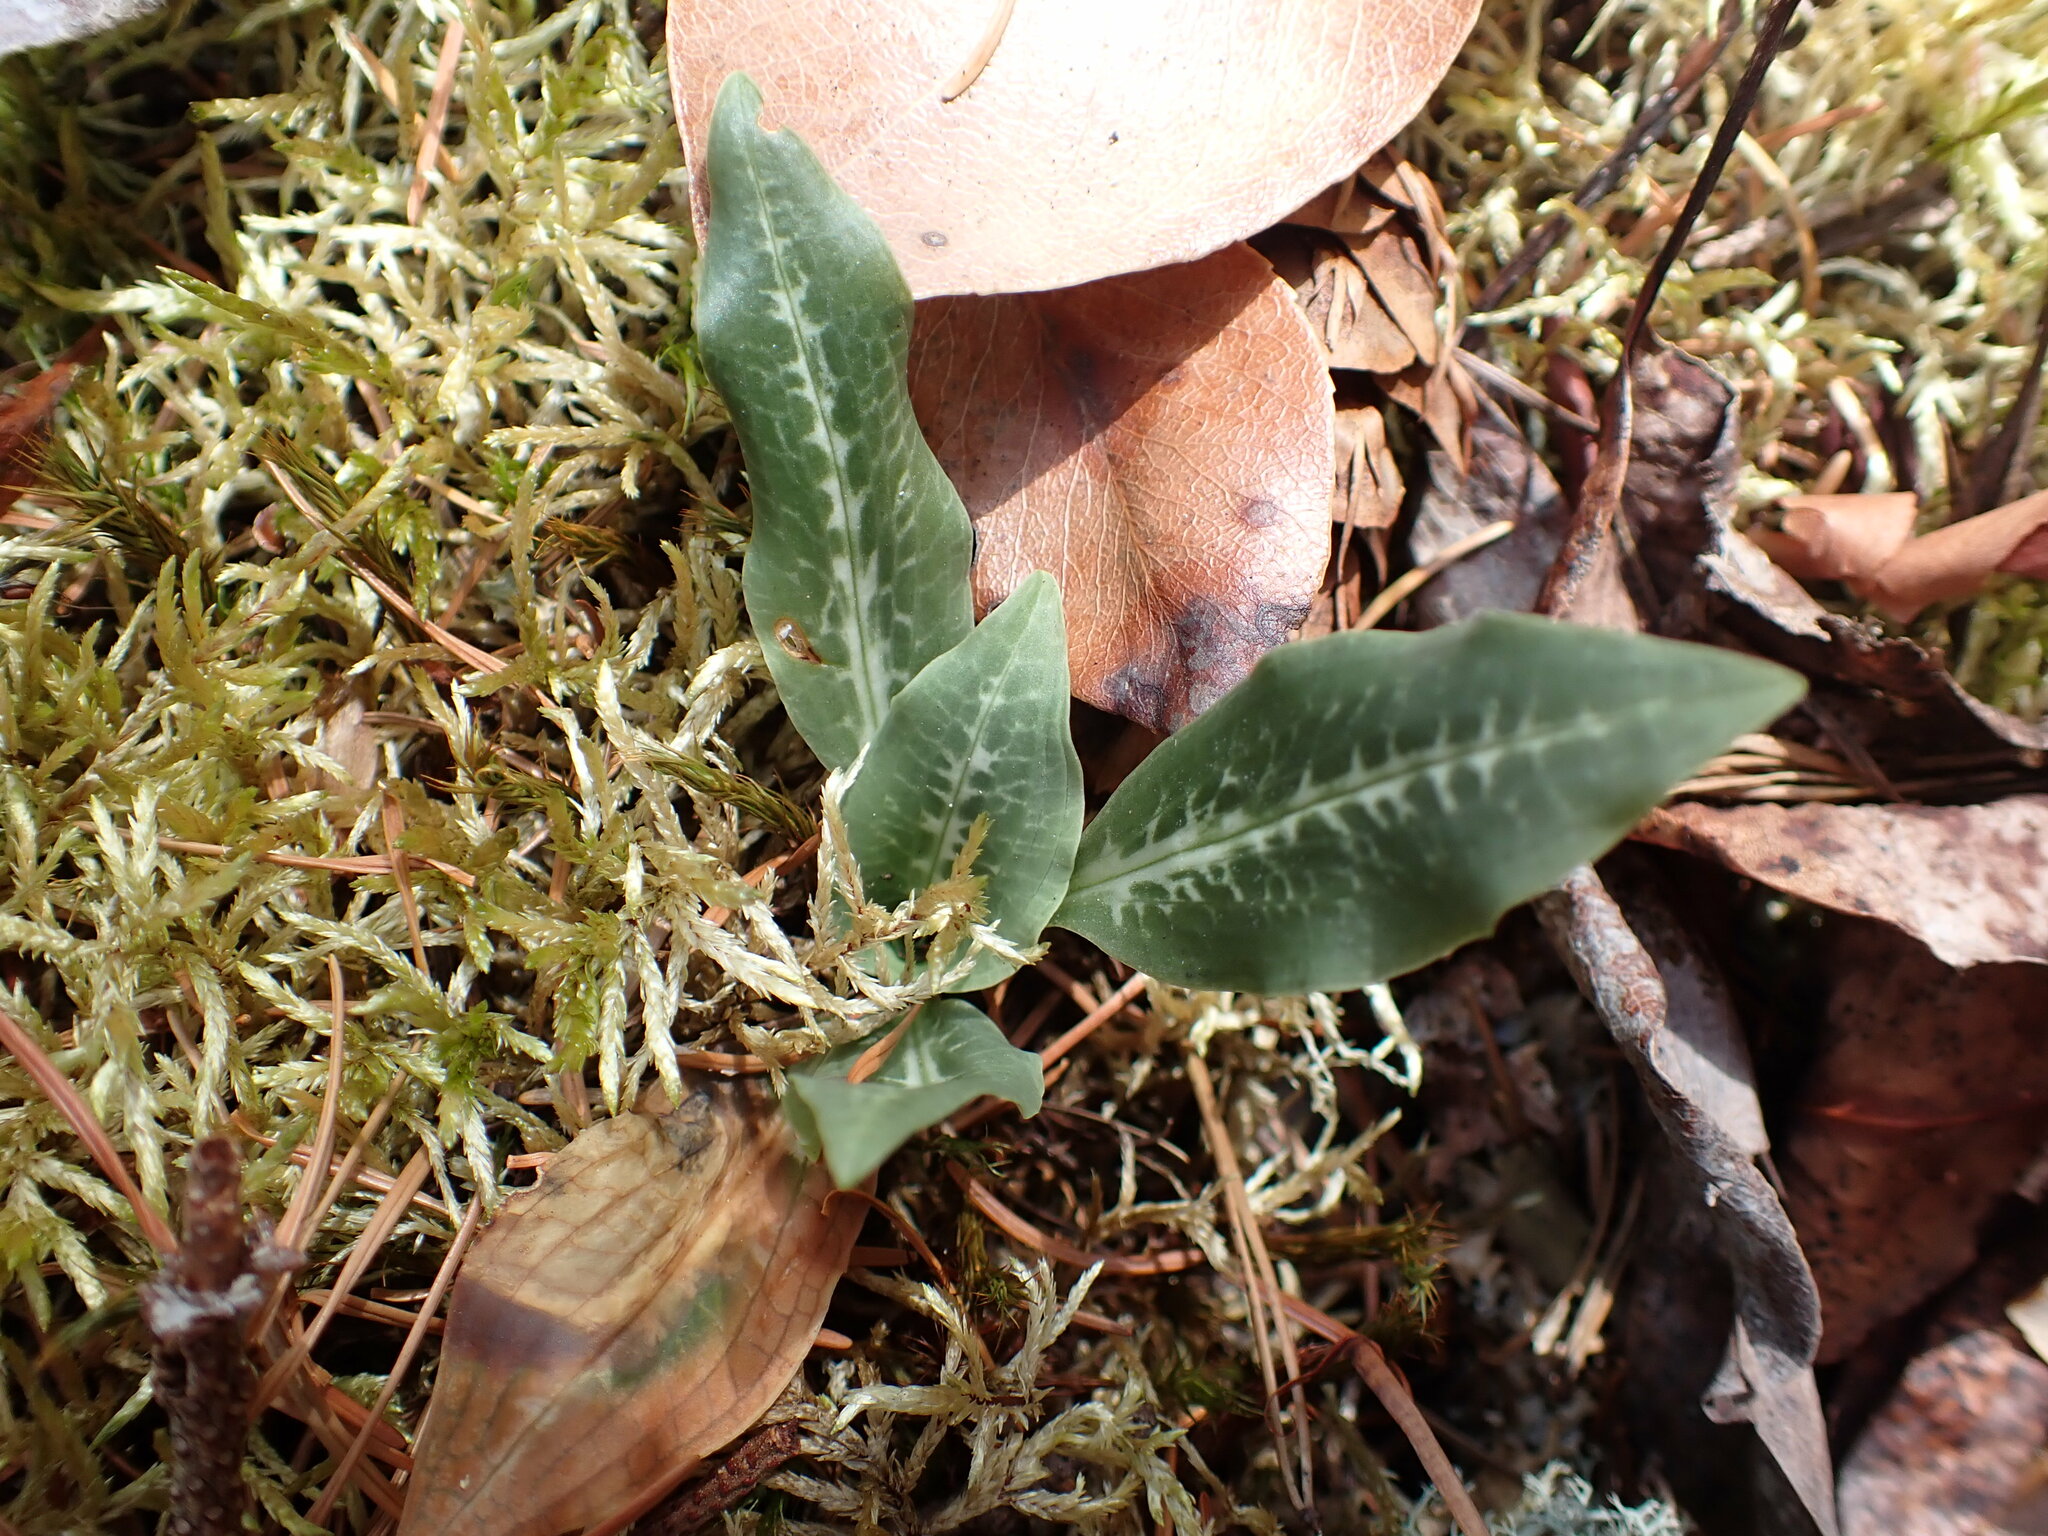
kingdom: Plantae
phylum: Tracheophyta
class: Liliopsida
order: Asparagales
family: Orchidaceae
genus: Goodyera
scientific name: Goodyera oblongifolia
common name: Giant rattlesnake-plantain
